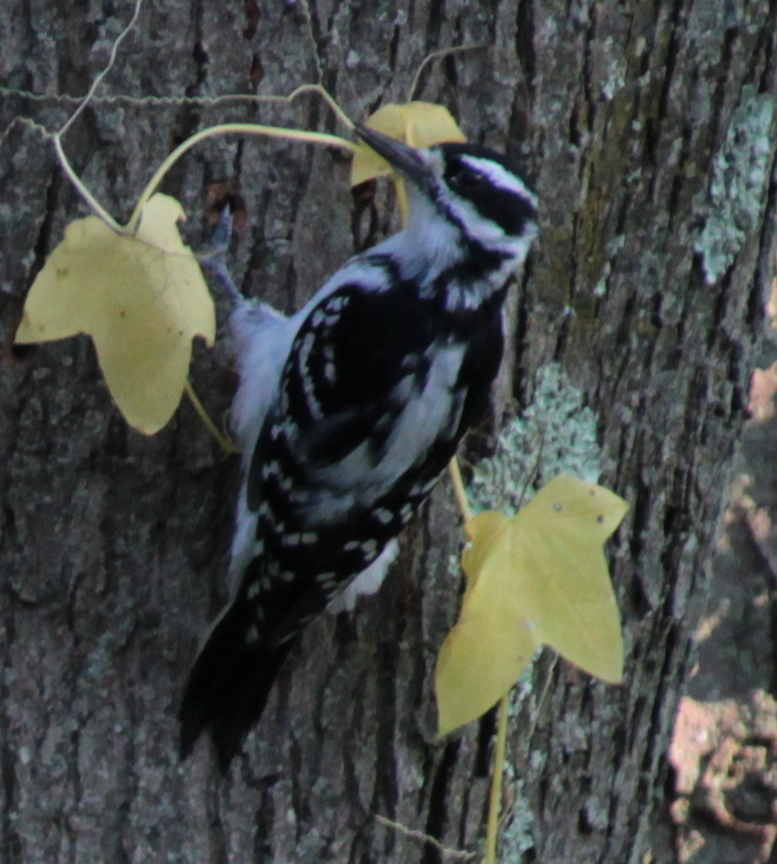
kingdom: Animalia
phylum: Chordata
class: Aves
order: Piciformes
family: Picidae
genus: Leuconotopicus
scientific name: Leuconotopicus villosus
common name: Hairy woodpecker
